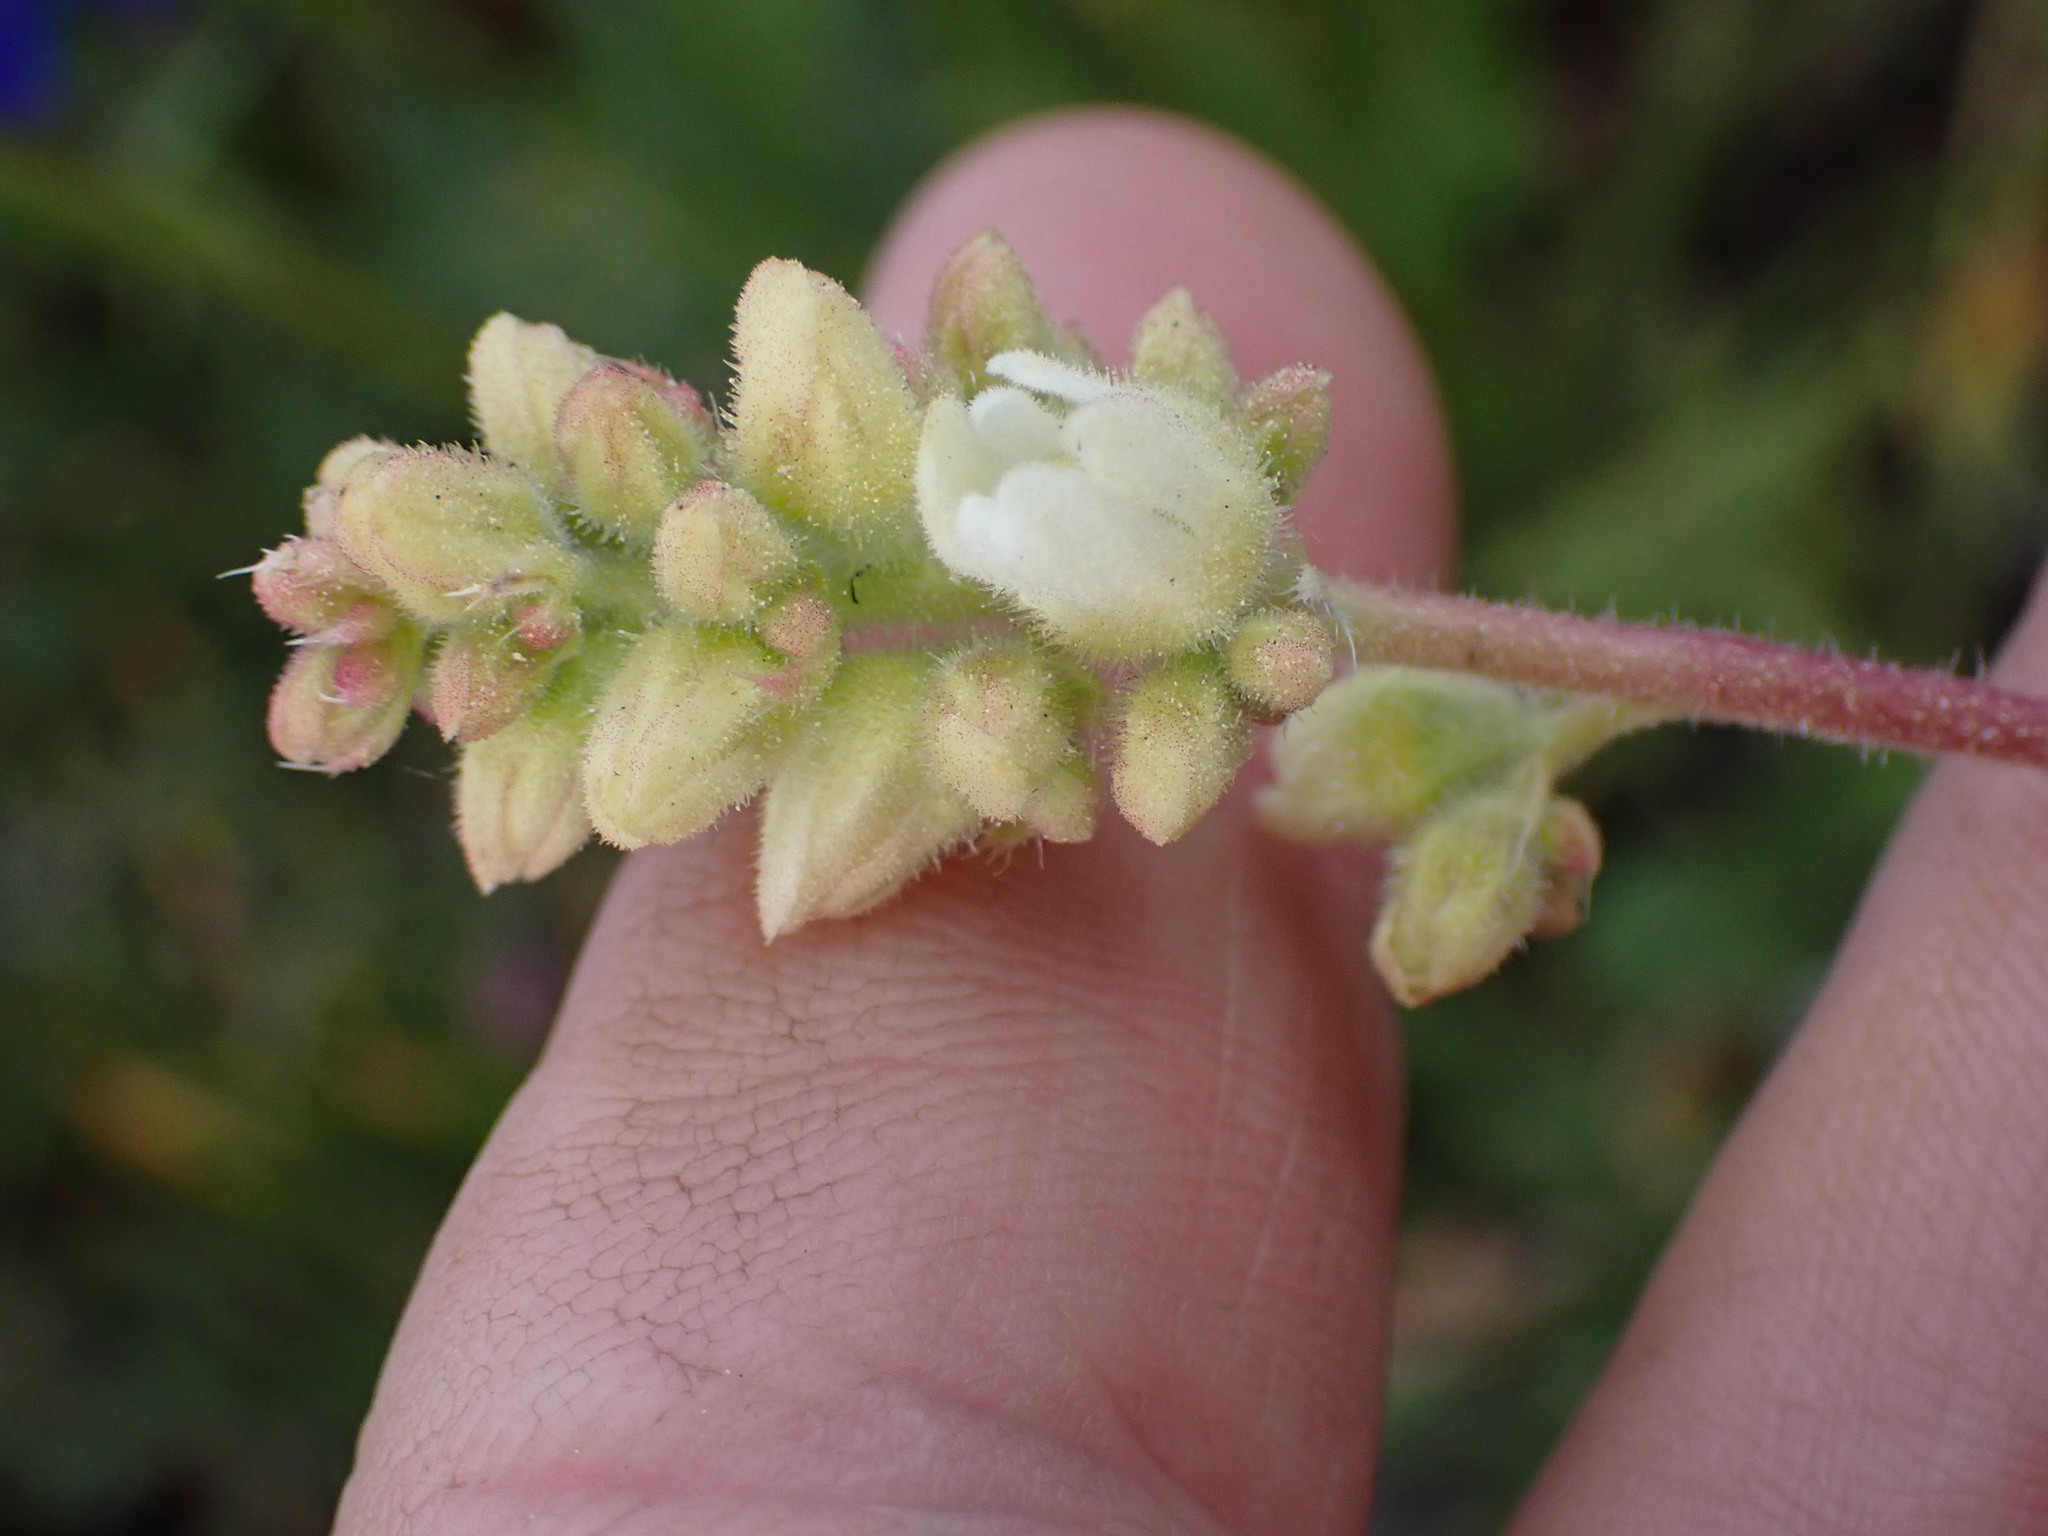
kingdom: Plantae
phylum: Tracheophyta
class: Magnoliopsida
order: Saxifragales
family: Saxifragaceae
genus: Heuchera
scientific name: Heuchera cylindrica
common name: Mat alumroot
